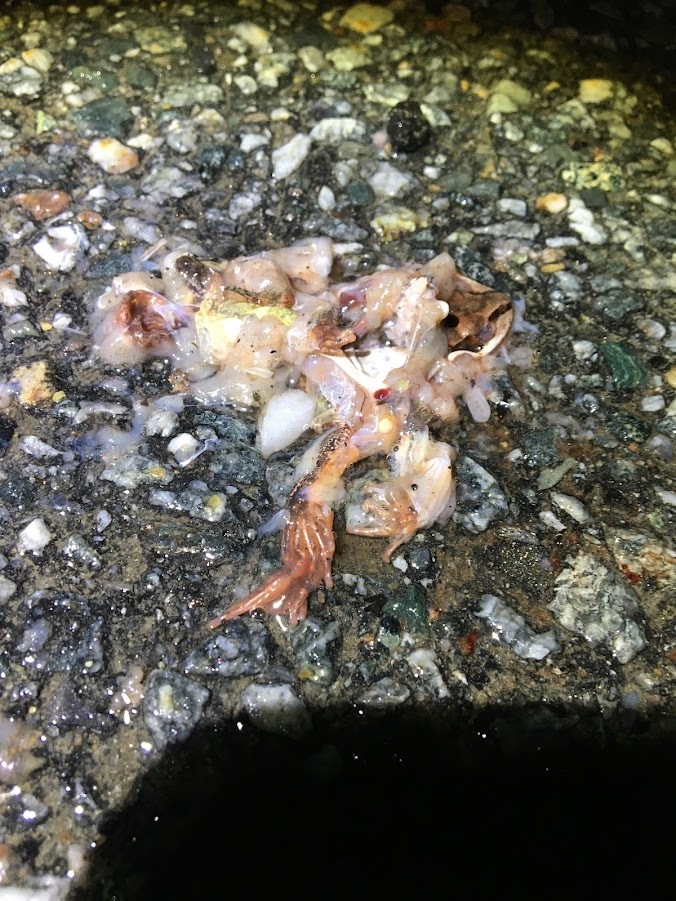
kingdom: Animalia
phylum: Chordata
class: Amphibia
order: Anura
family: Ranidae
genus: Lithobates
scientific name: Lithobates sylvaticus
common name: Wood frog
